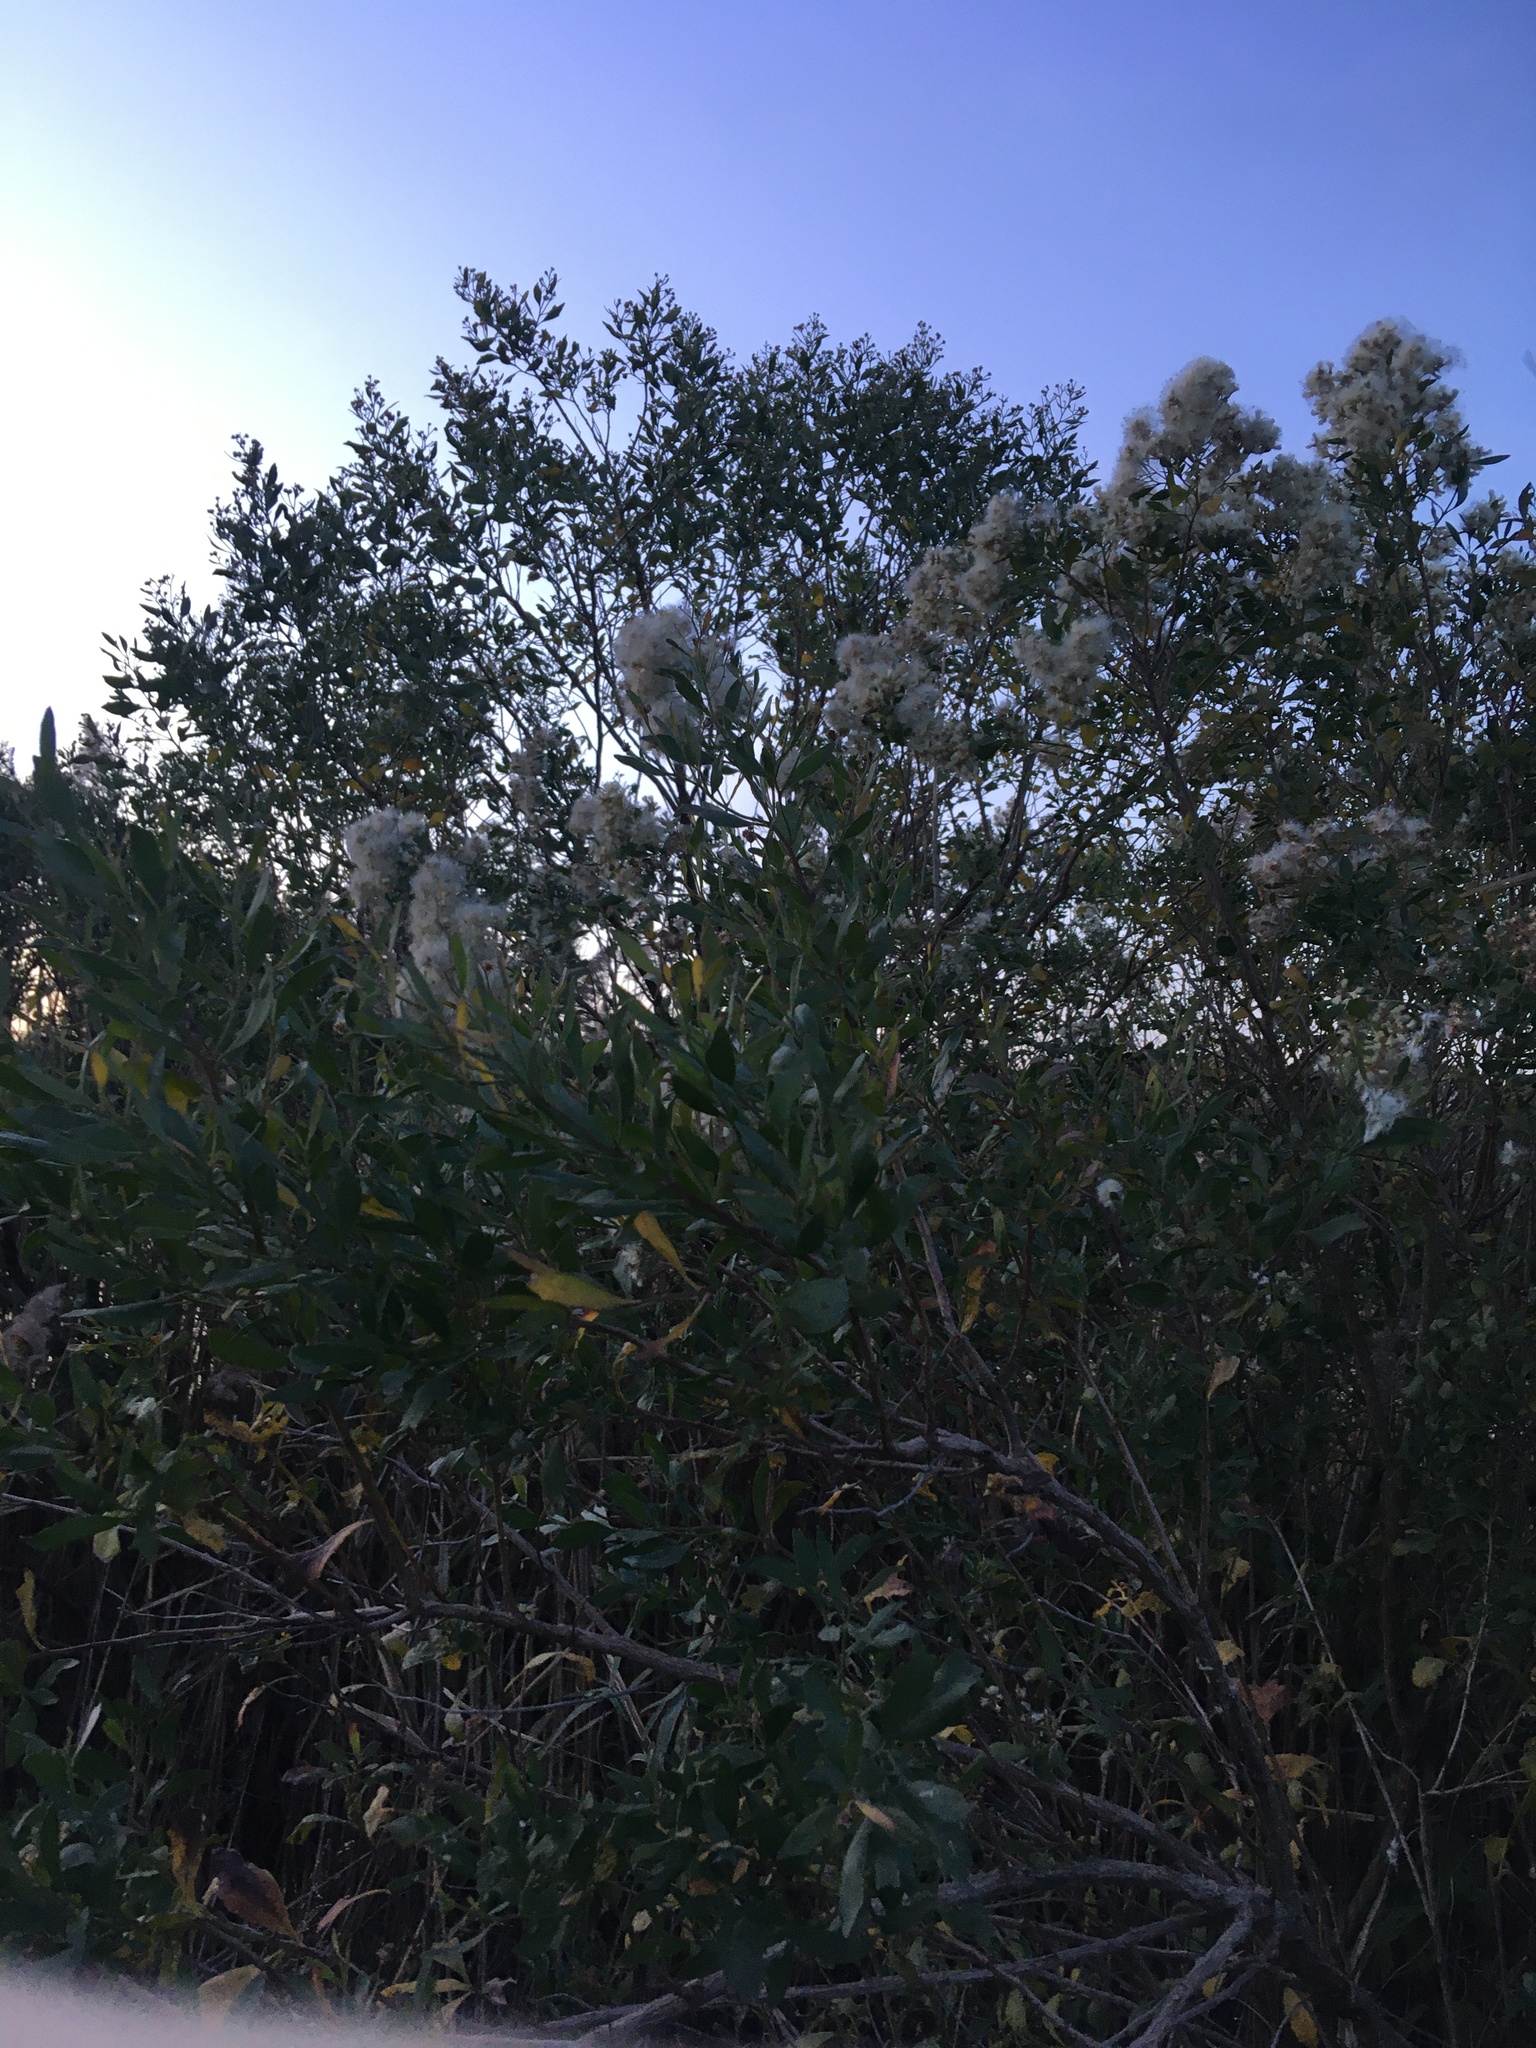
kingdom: Plantae
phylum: Tracheophyta
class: Magnoliopsida
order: Asterales
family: Asteraceae
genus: Baccharis
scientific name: Baccharis halimifolia
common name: Eastern baccharis
